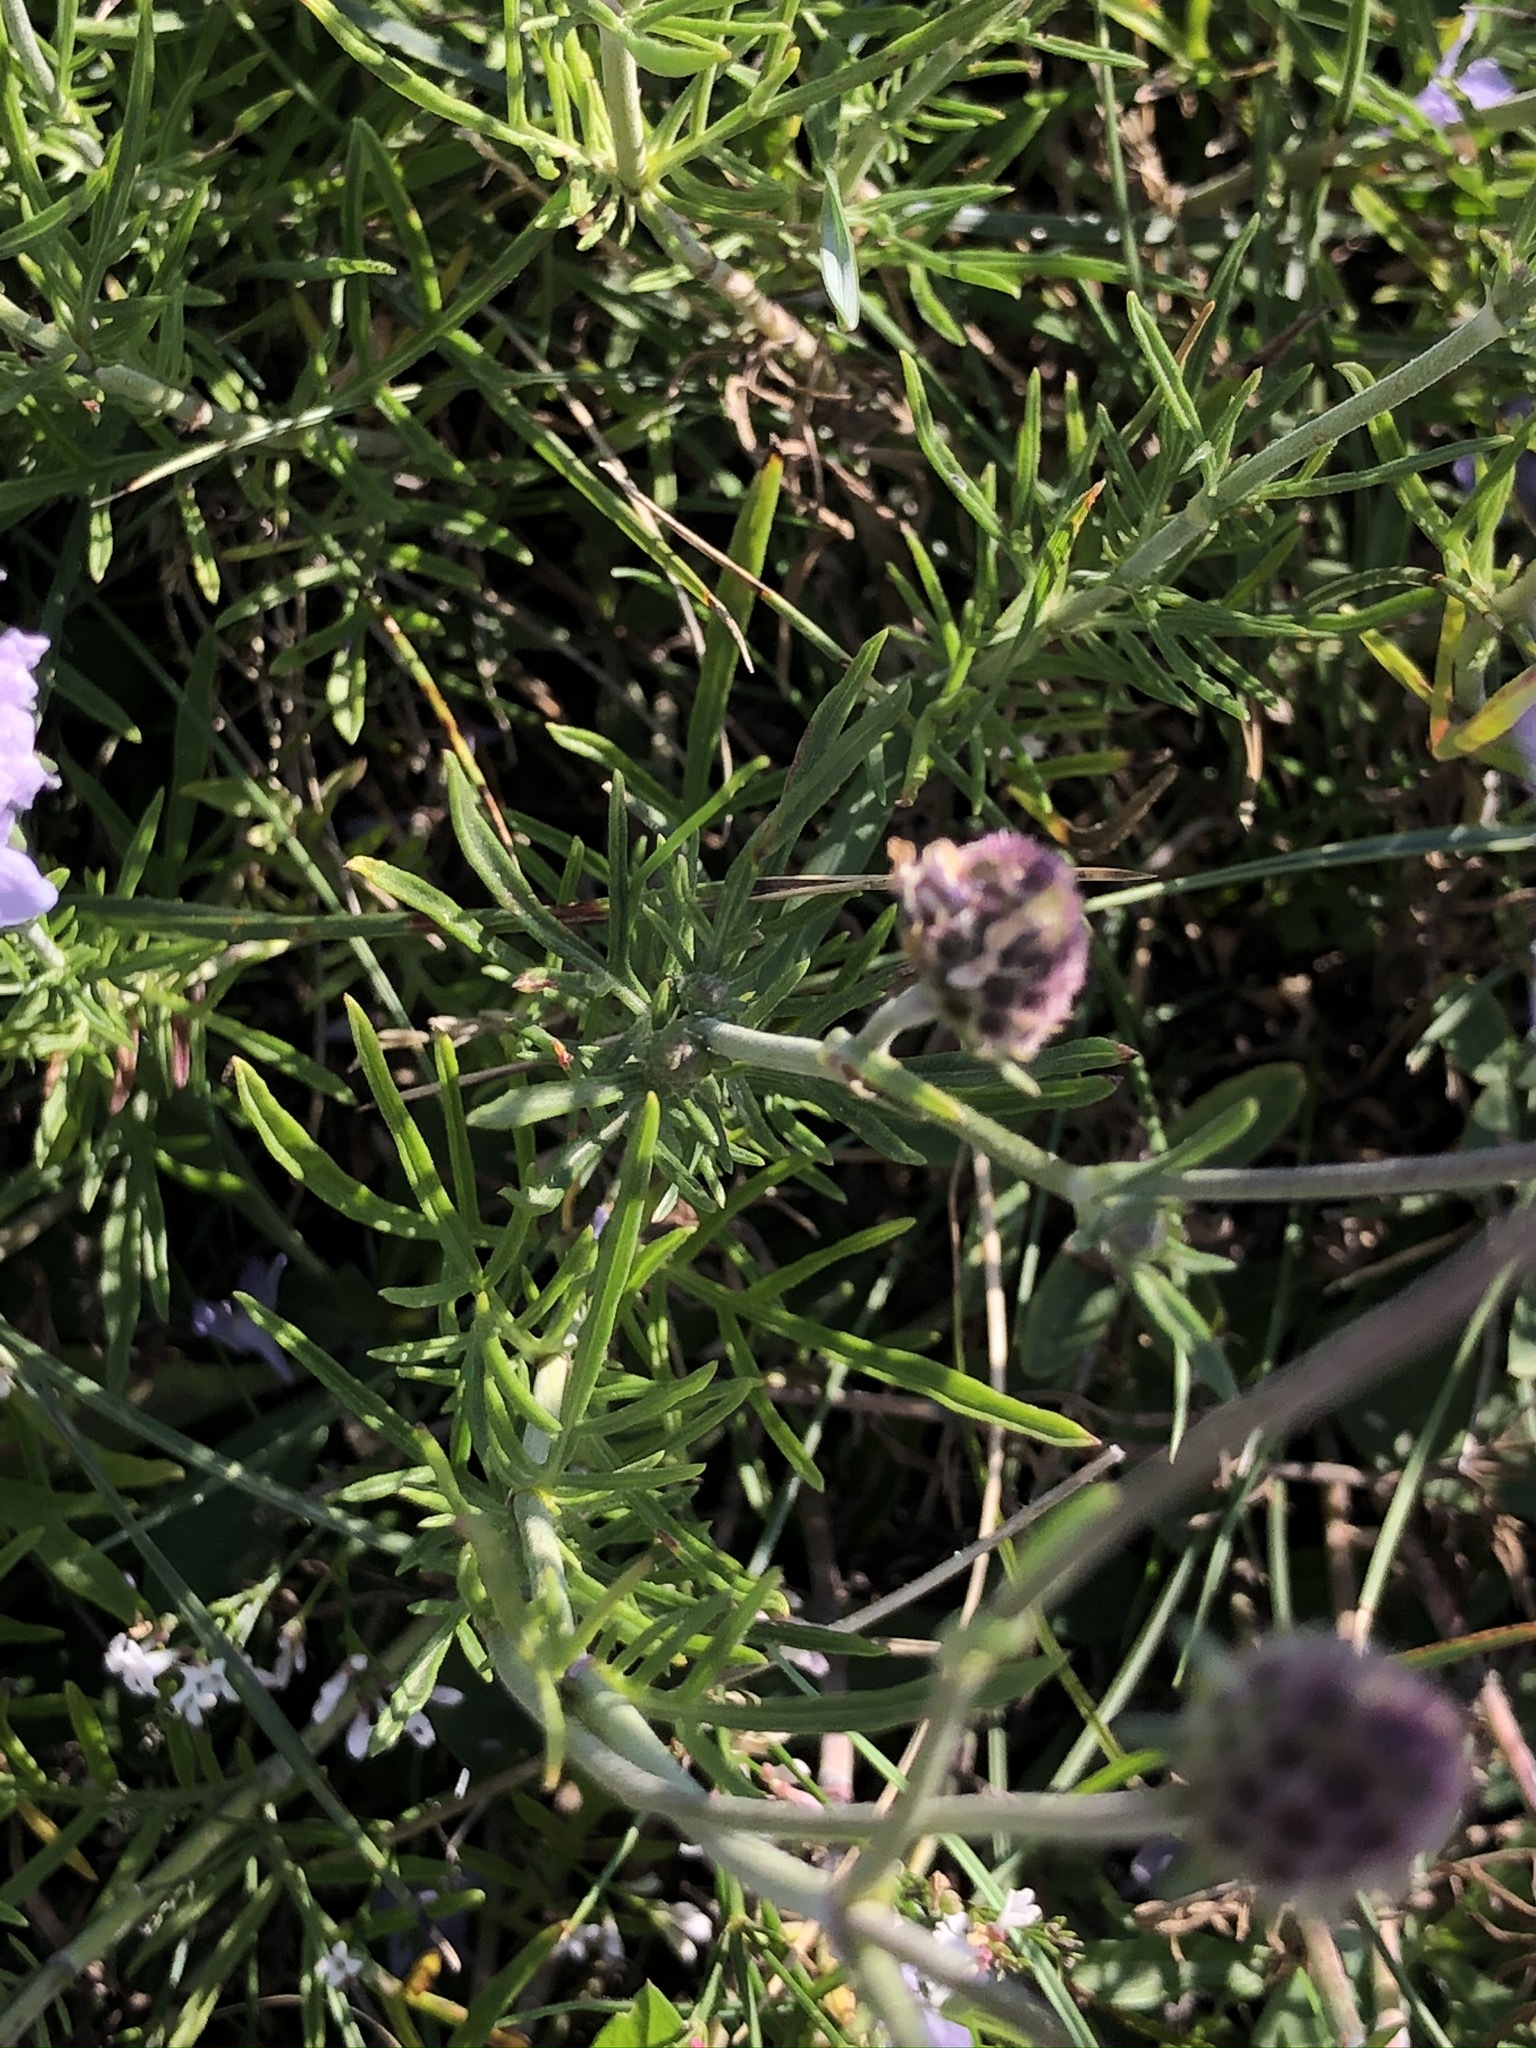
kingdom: Plantae
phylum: Tracheophyta
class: Magnoliopsida
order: Dipsacales
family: Caprifoliaceae
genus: Scabiosa
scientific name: Scabiosa canescens
